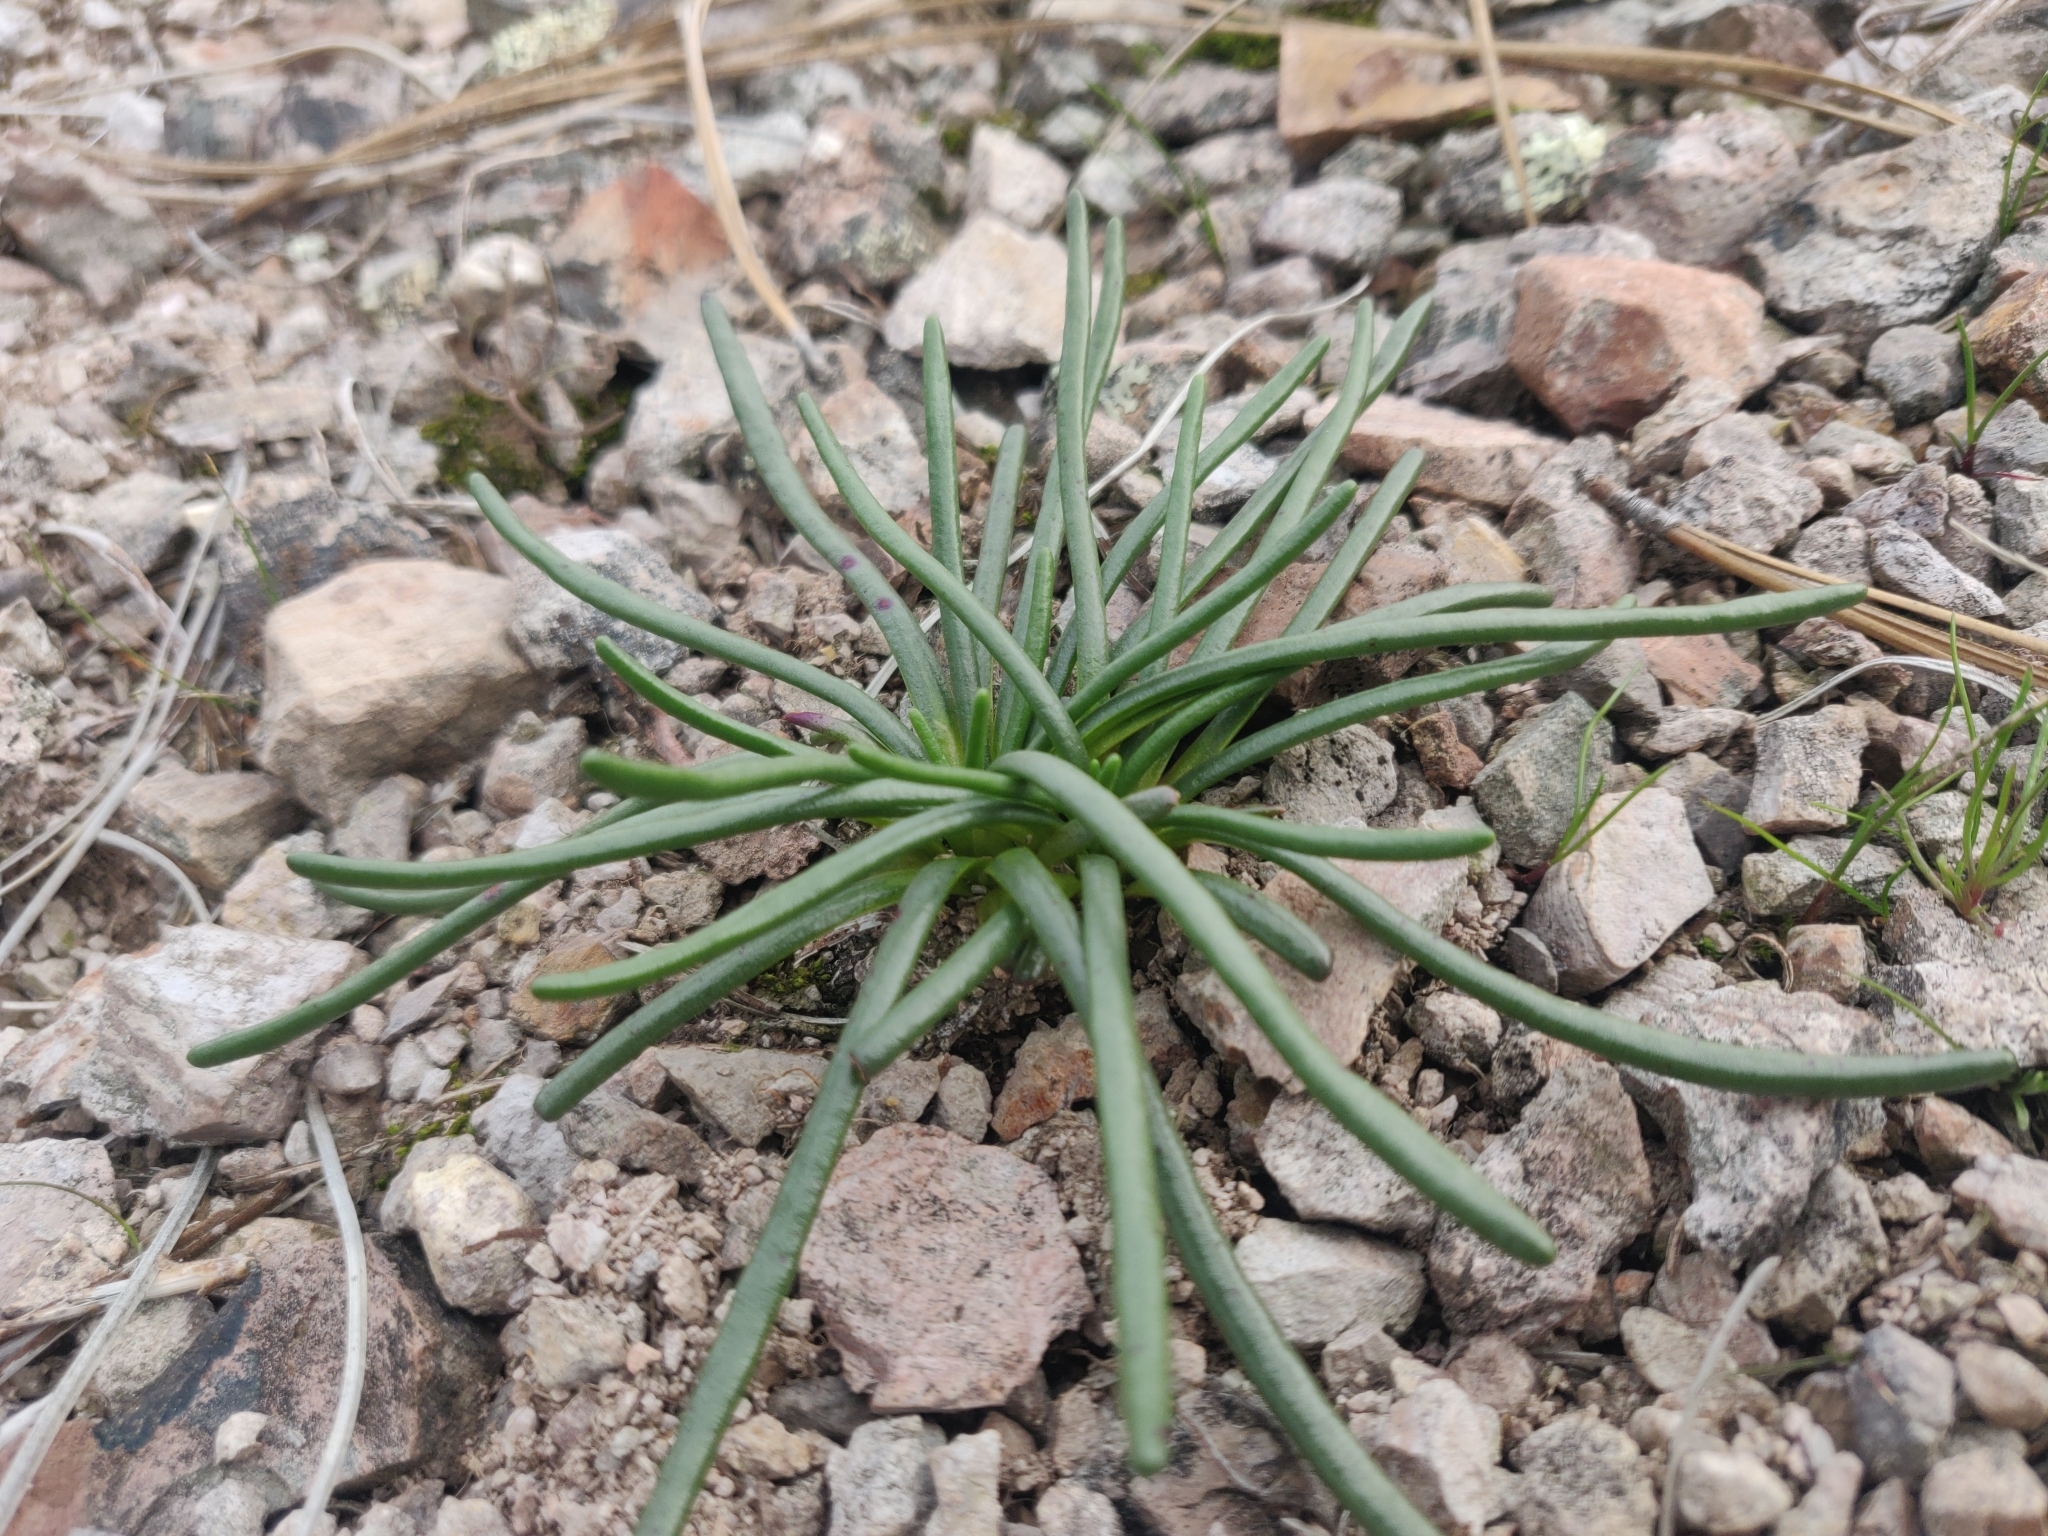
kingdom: Plantae
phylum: Tracheophyta
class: Magnoliopsida
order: Caryophyllales
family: Montiaceae
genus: Lewisia
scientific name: Lewisia rediviva
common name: Bitter-root
